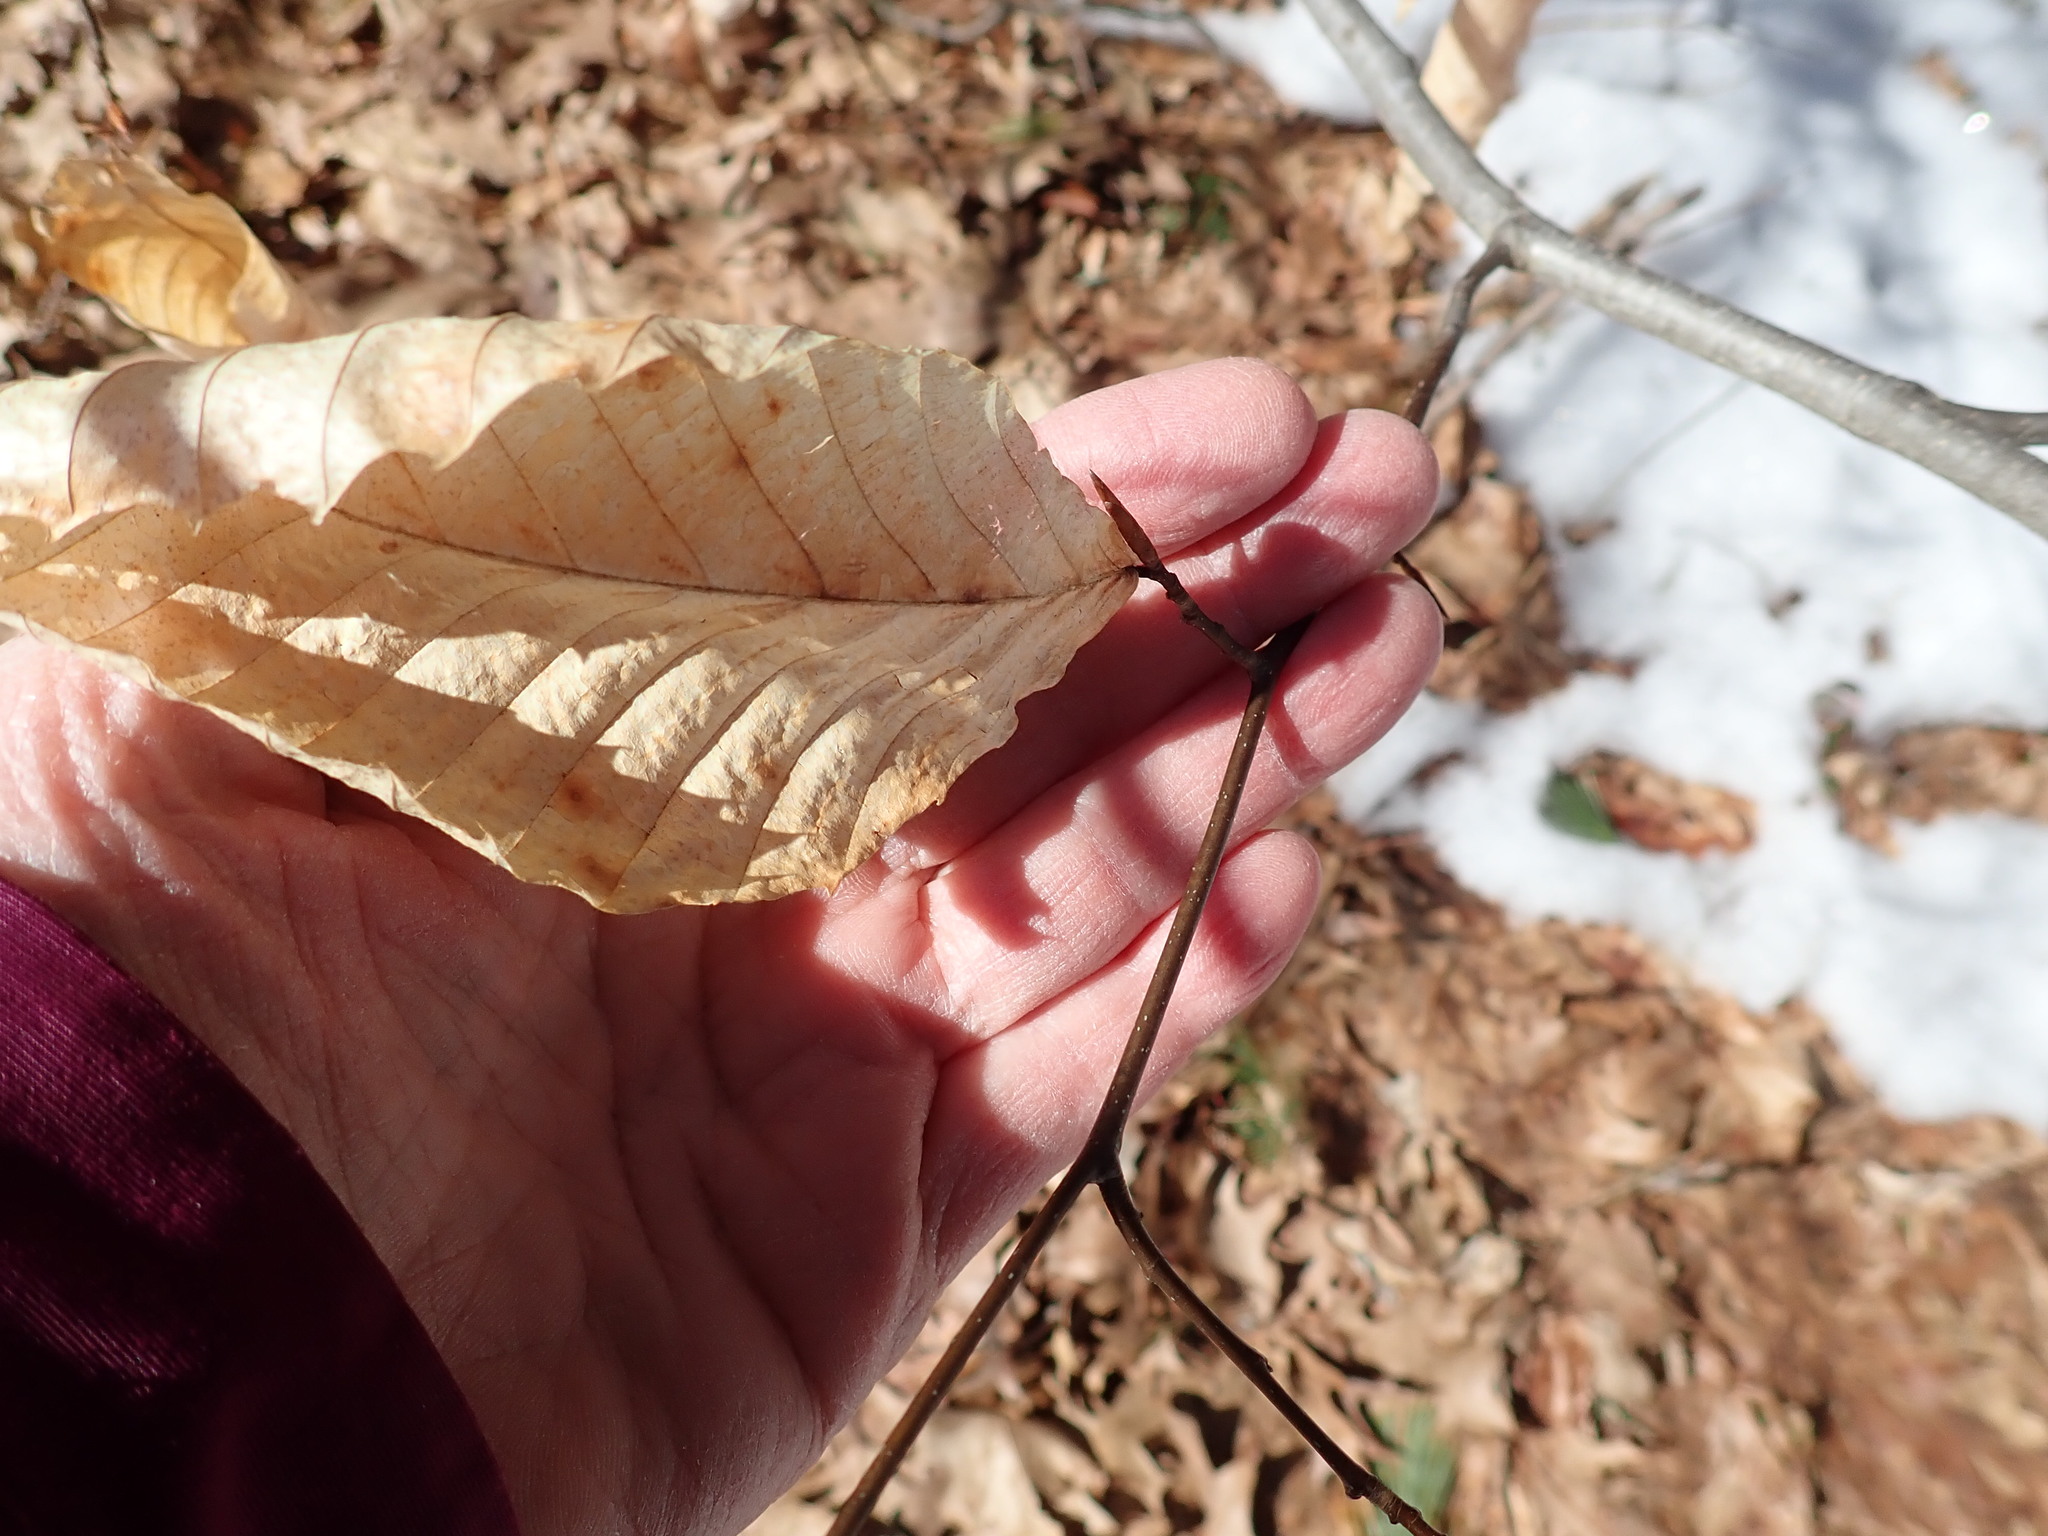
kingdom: Plantae
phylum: Tracheophyta
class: Magnoliopsida
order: Fagales
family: Fagaceae
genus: Fagus
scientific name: Fagus grandifolia
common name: American beech
